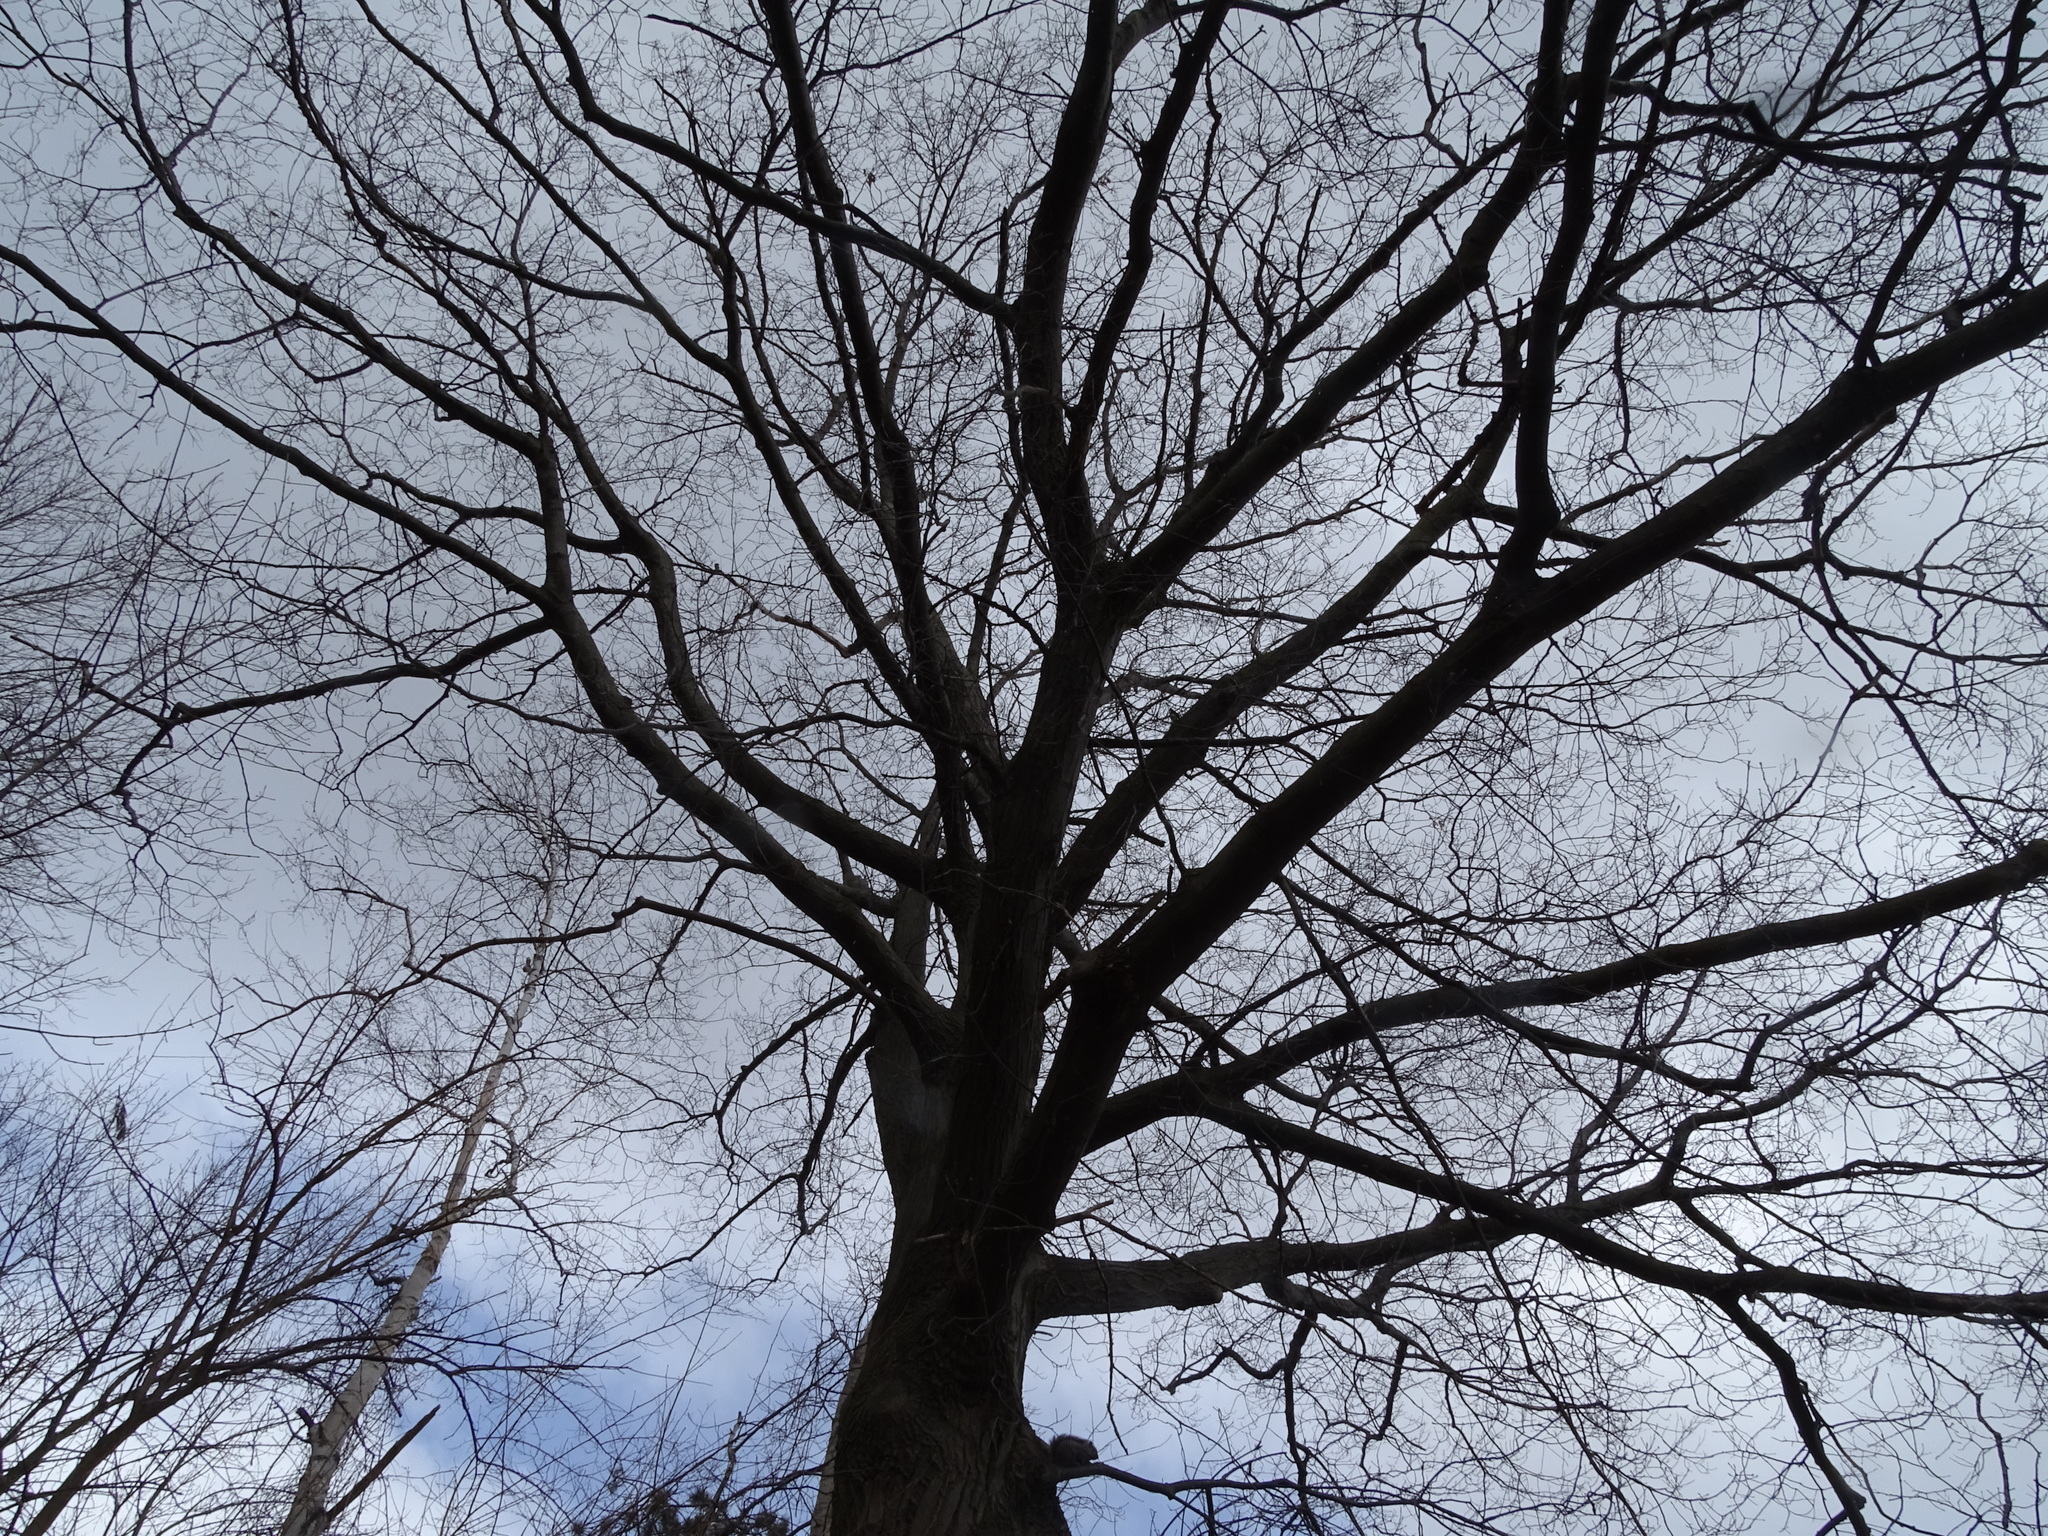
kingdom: Plantae
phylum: Tracheophyta
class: Magnoliopsida
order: Fagales
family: Fagaceae
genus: Quercus
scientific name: Quercus rubra
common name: Red oak
